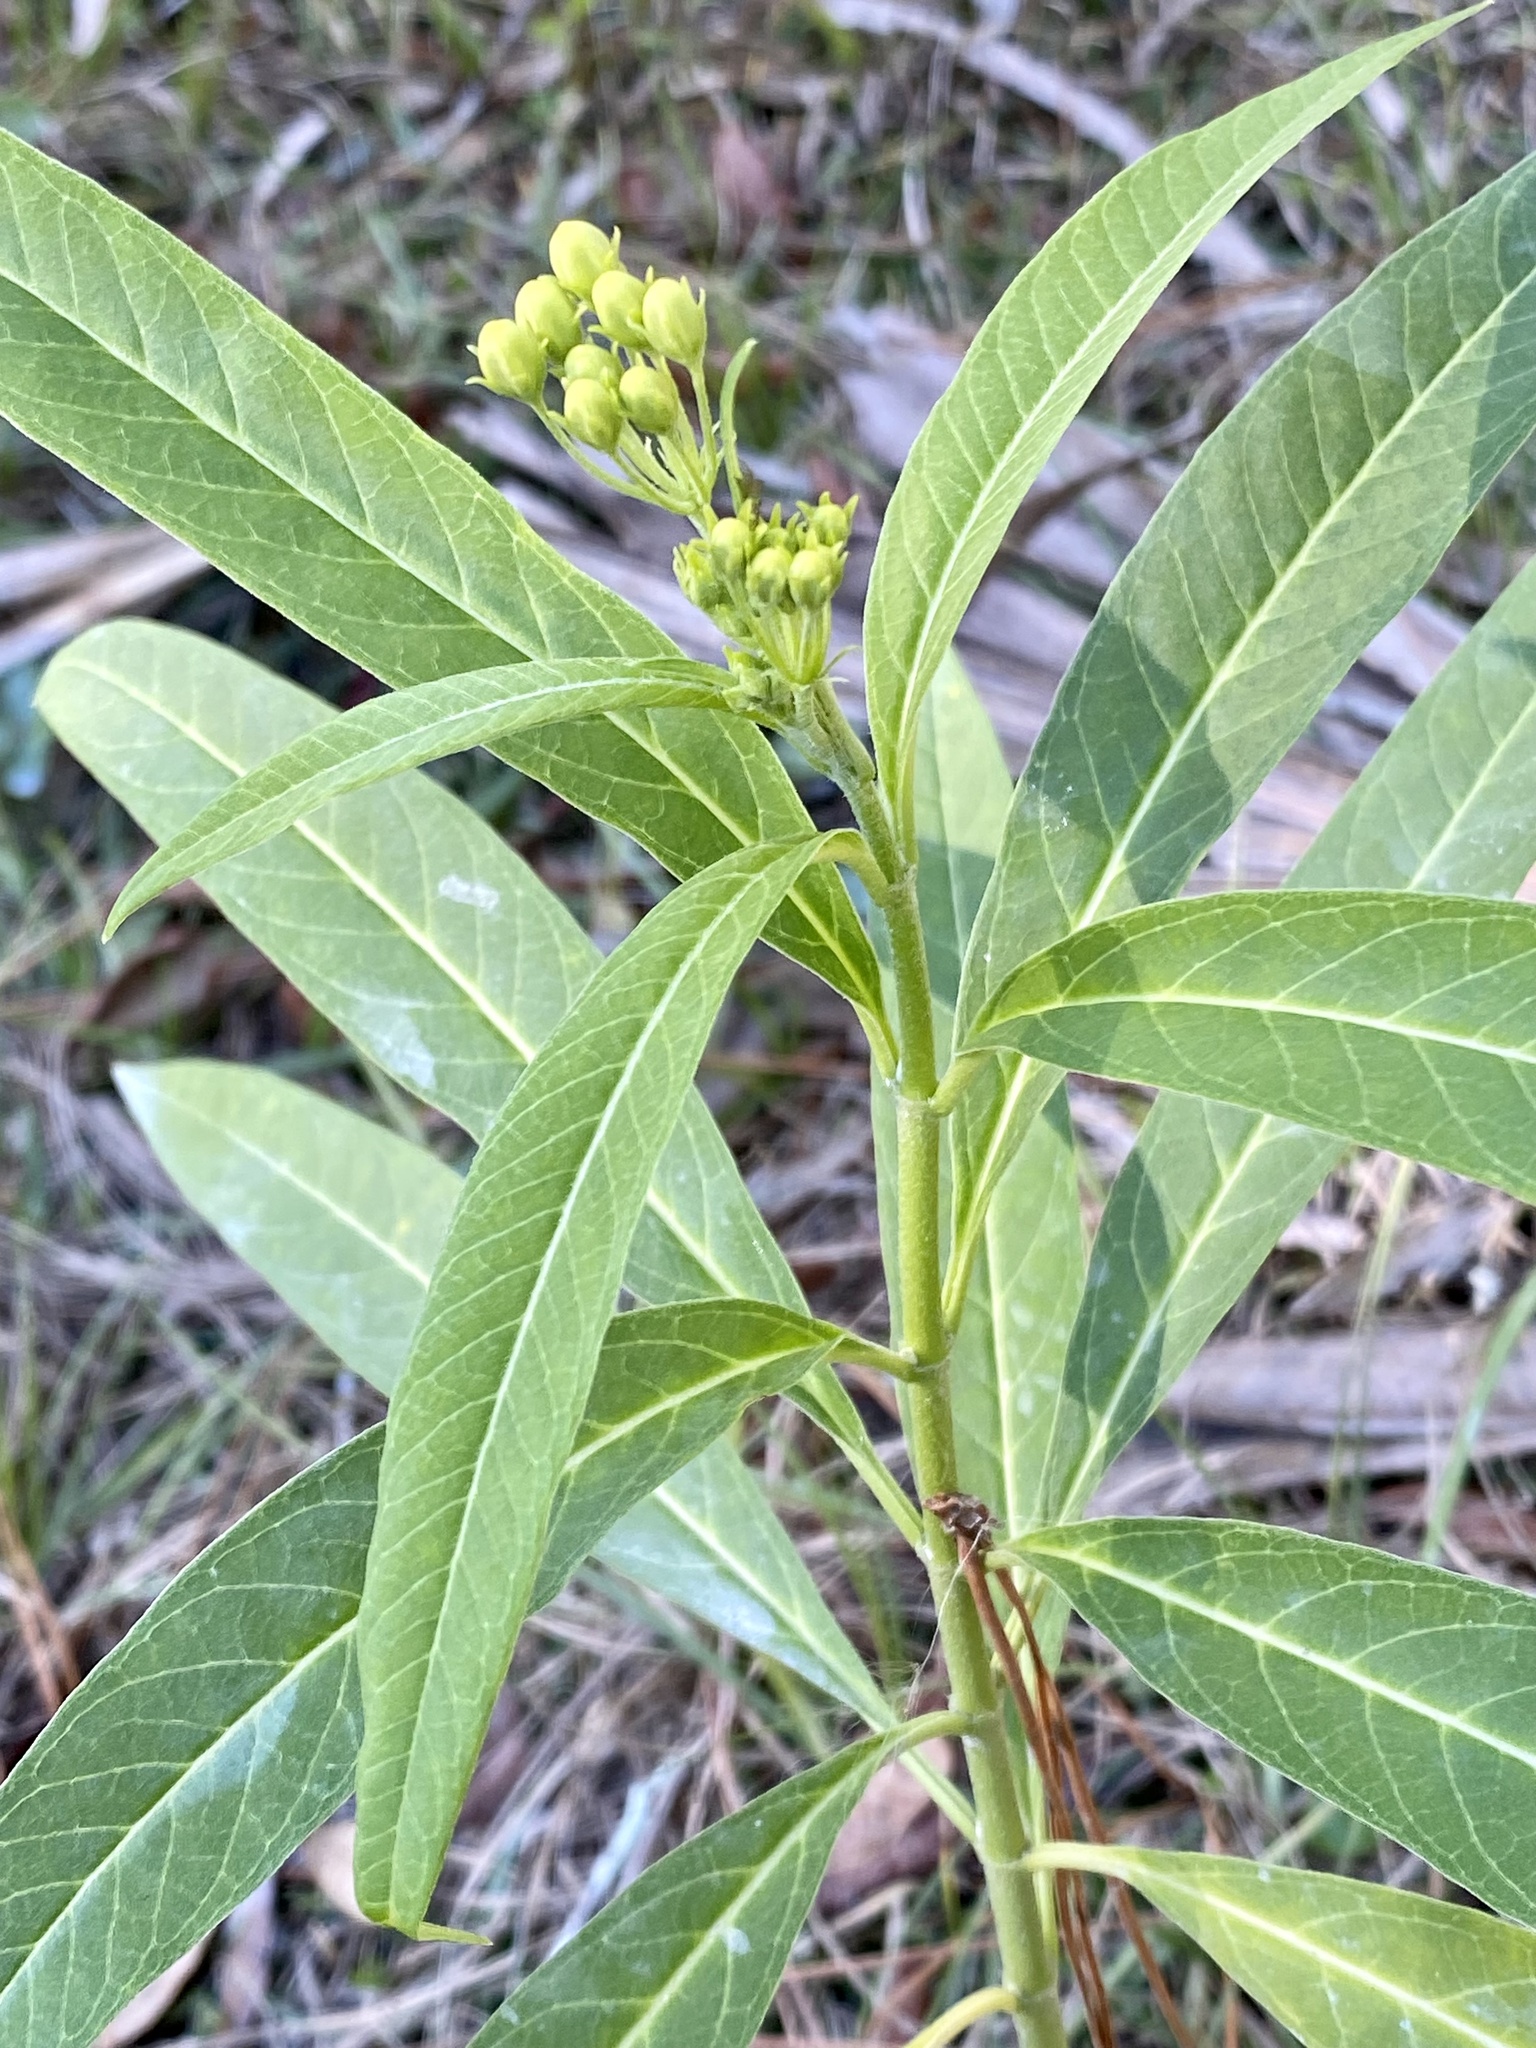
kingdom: Plantae
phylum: Tracheophyta
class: Magnoliopsida
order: Gentianales
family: Apocynaceae
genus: Asclepias
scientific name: Asclepias curassavica
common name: Bloodflower
